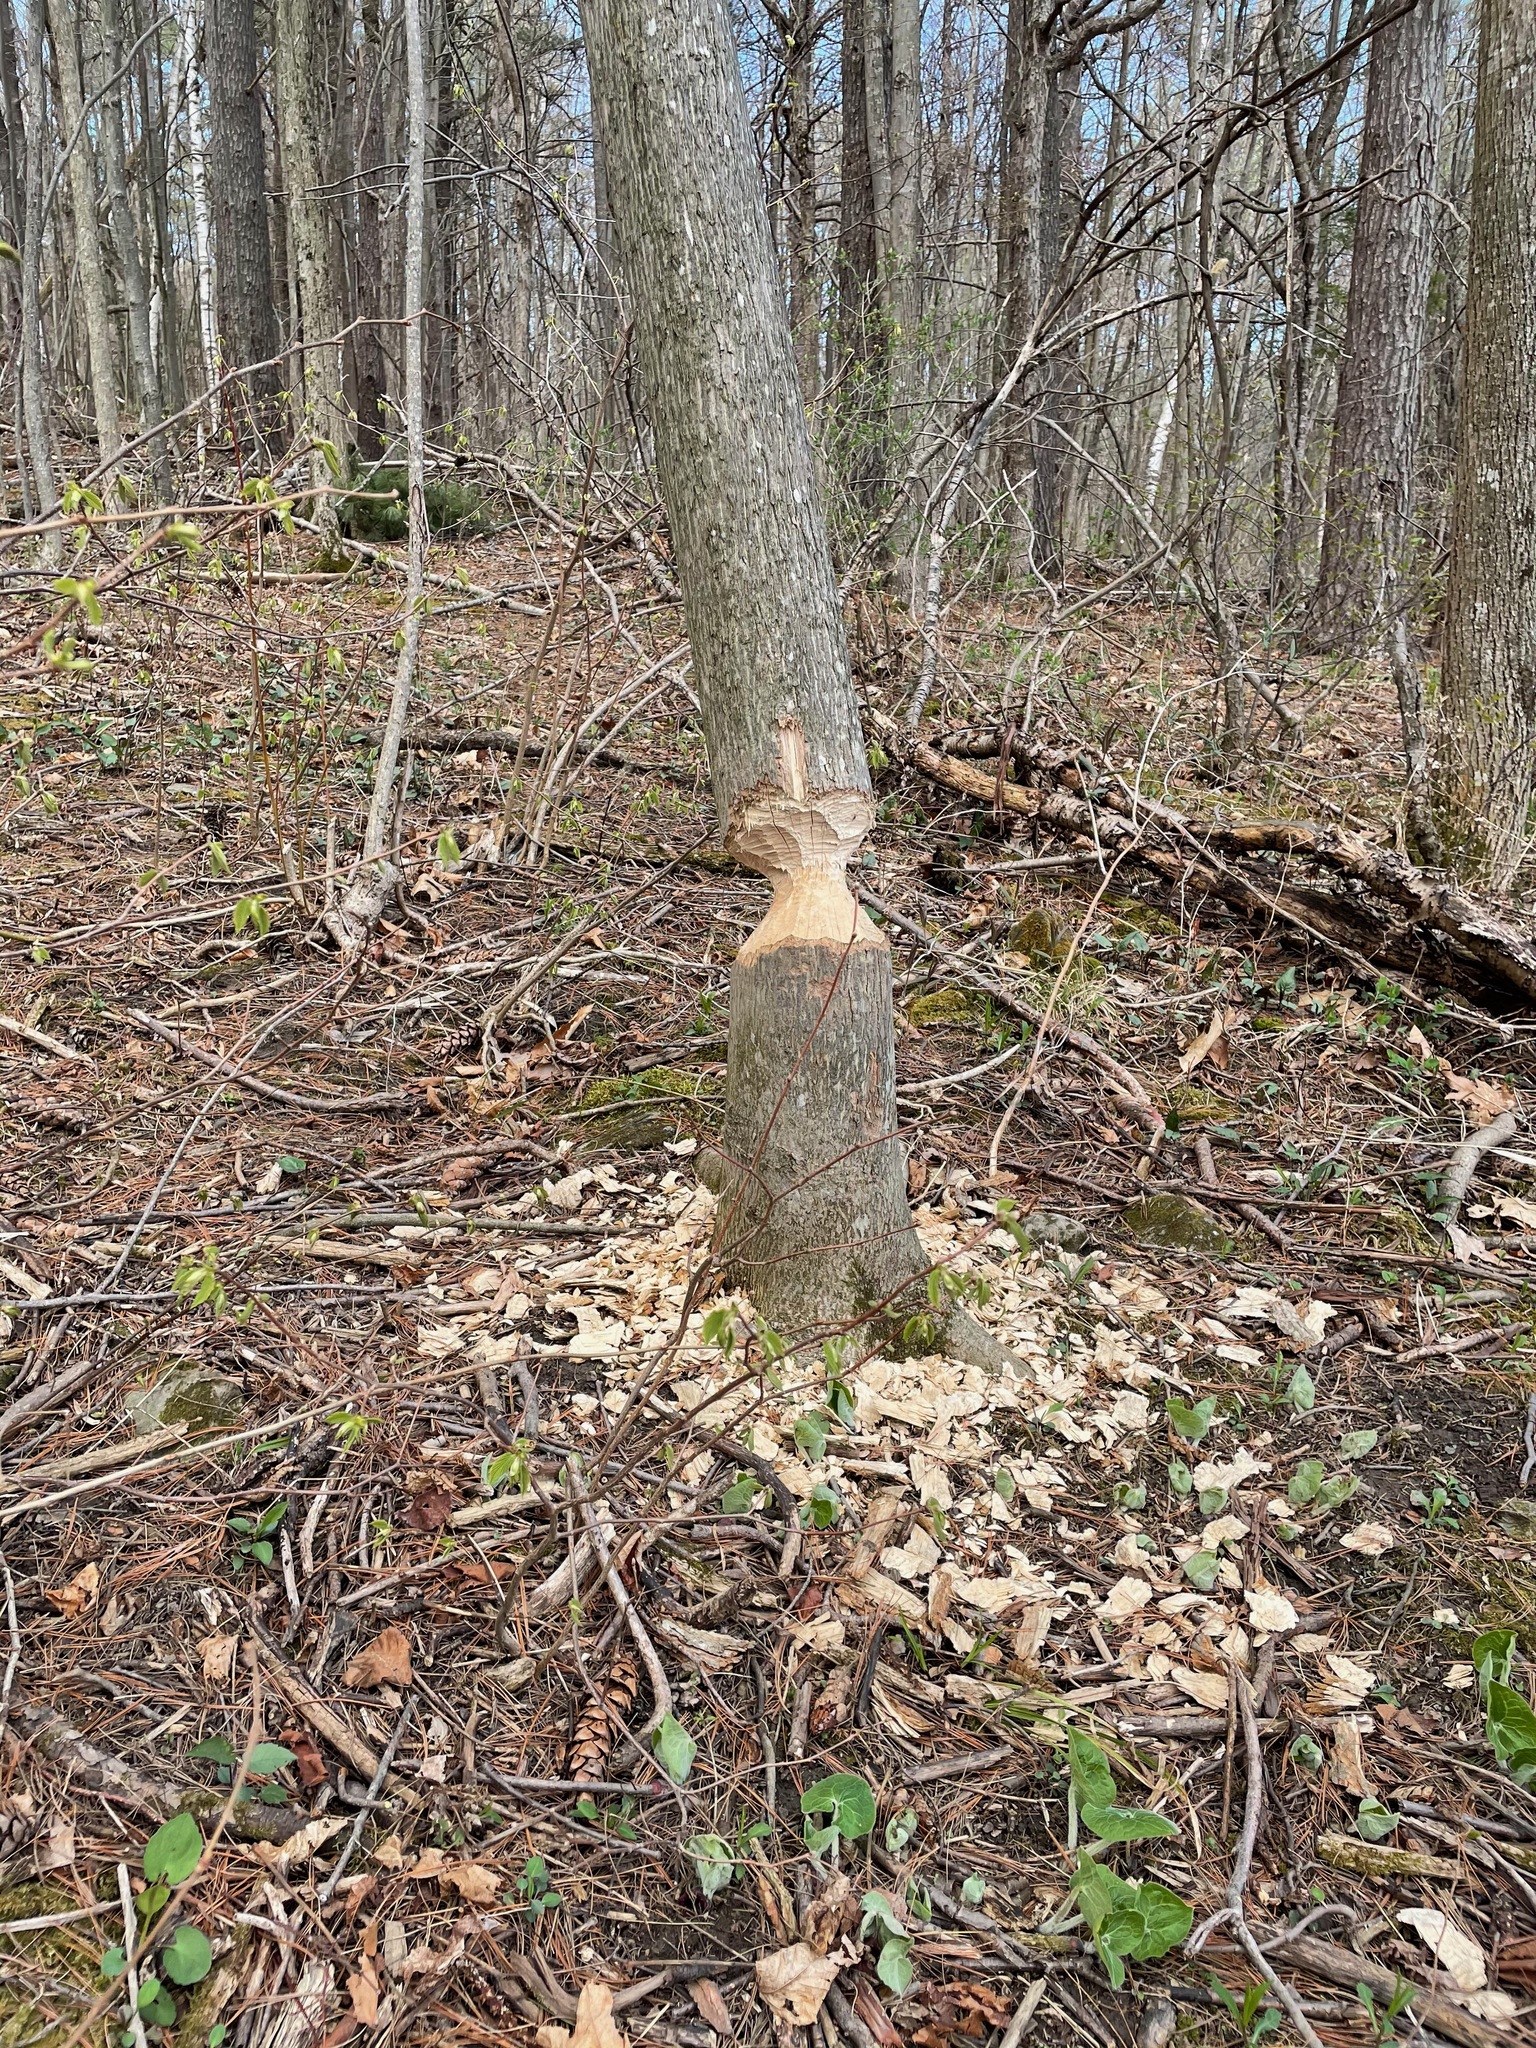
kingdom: Animalia
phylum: Chordata
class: Mammalia
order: Rodentia
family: Castoridae
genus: Castor
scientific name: Castor canadensis
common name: American beaver
